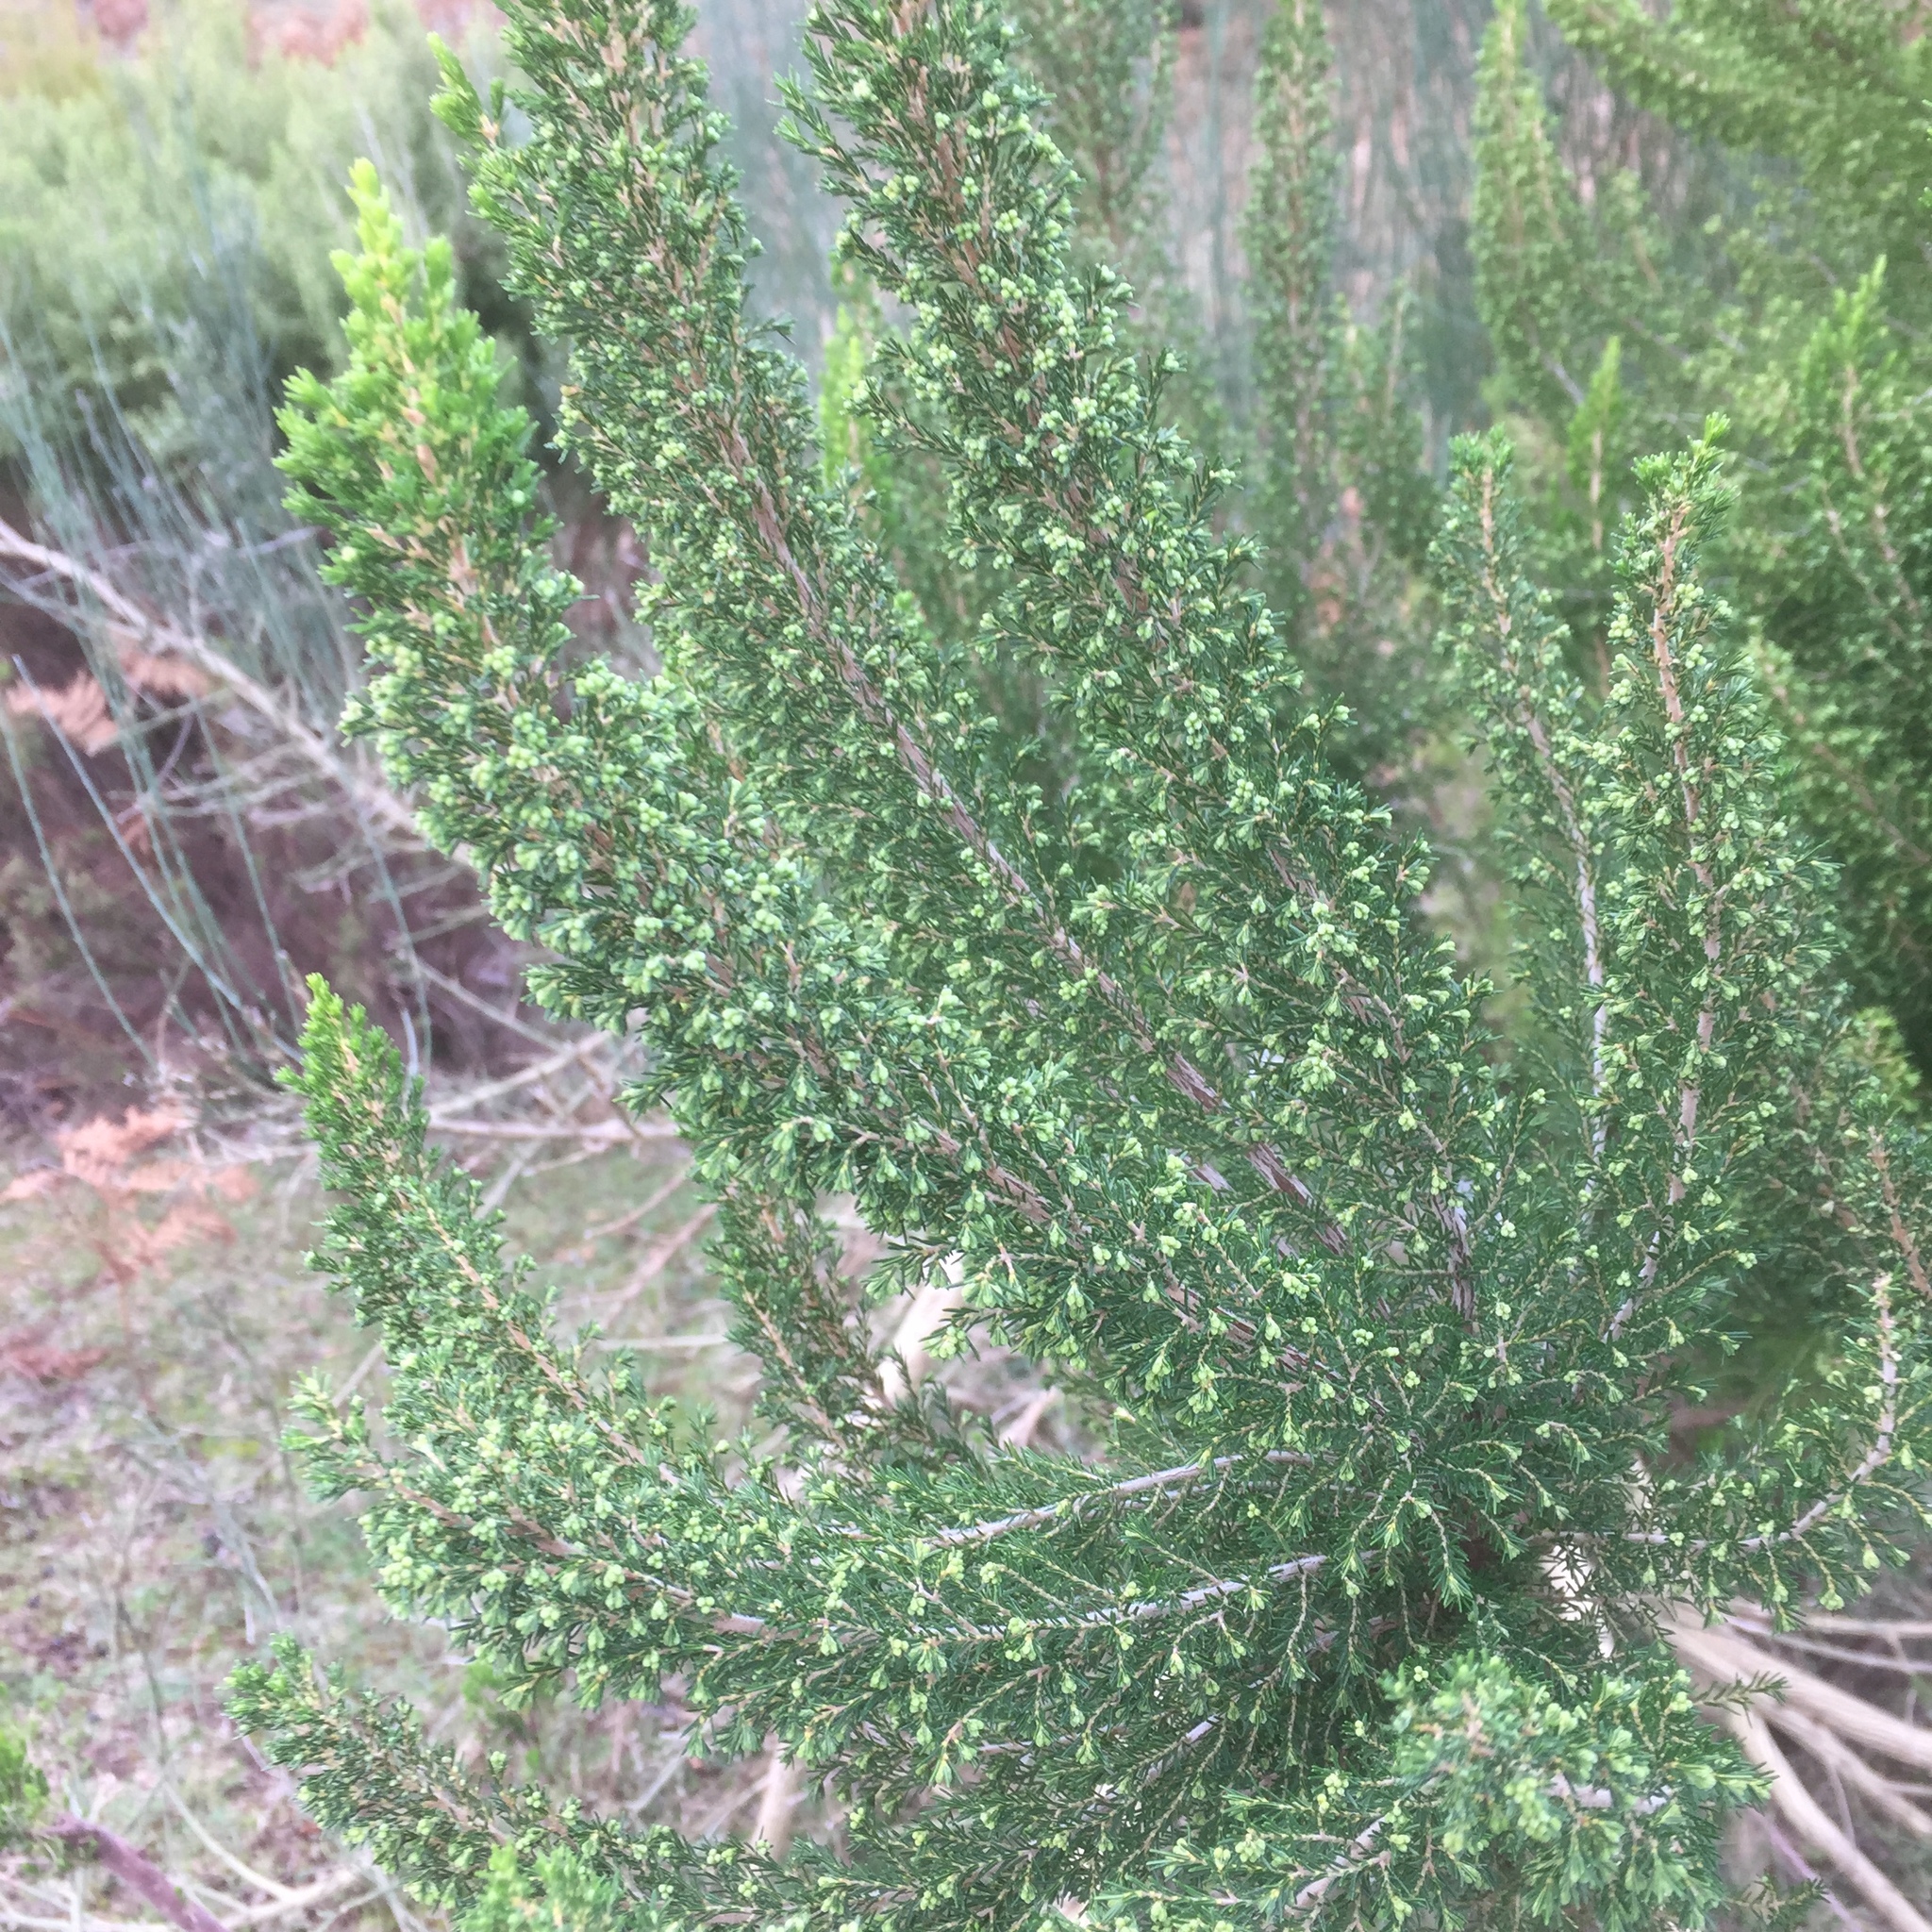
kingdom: Plantae
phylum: Tracheophyta
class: Magnoliopsida
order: Ericales
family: Ericaceae
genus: Erica
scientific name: Erica canariensis
